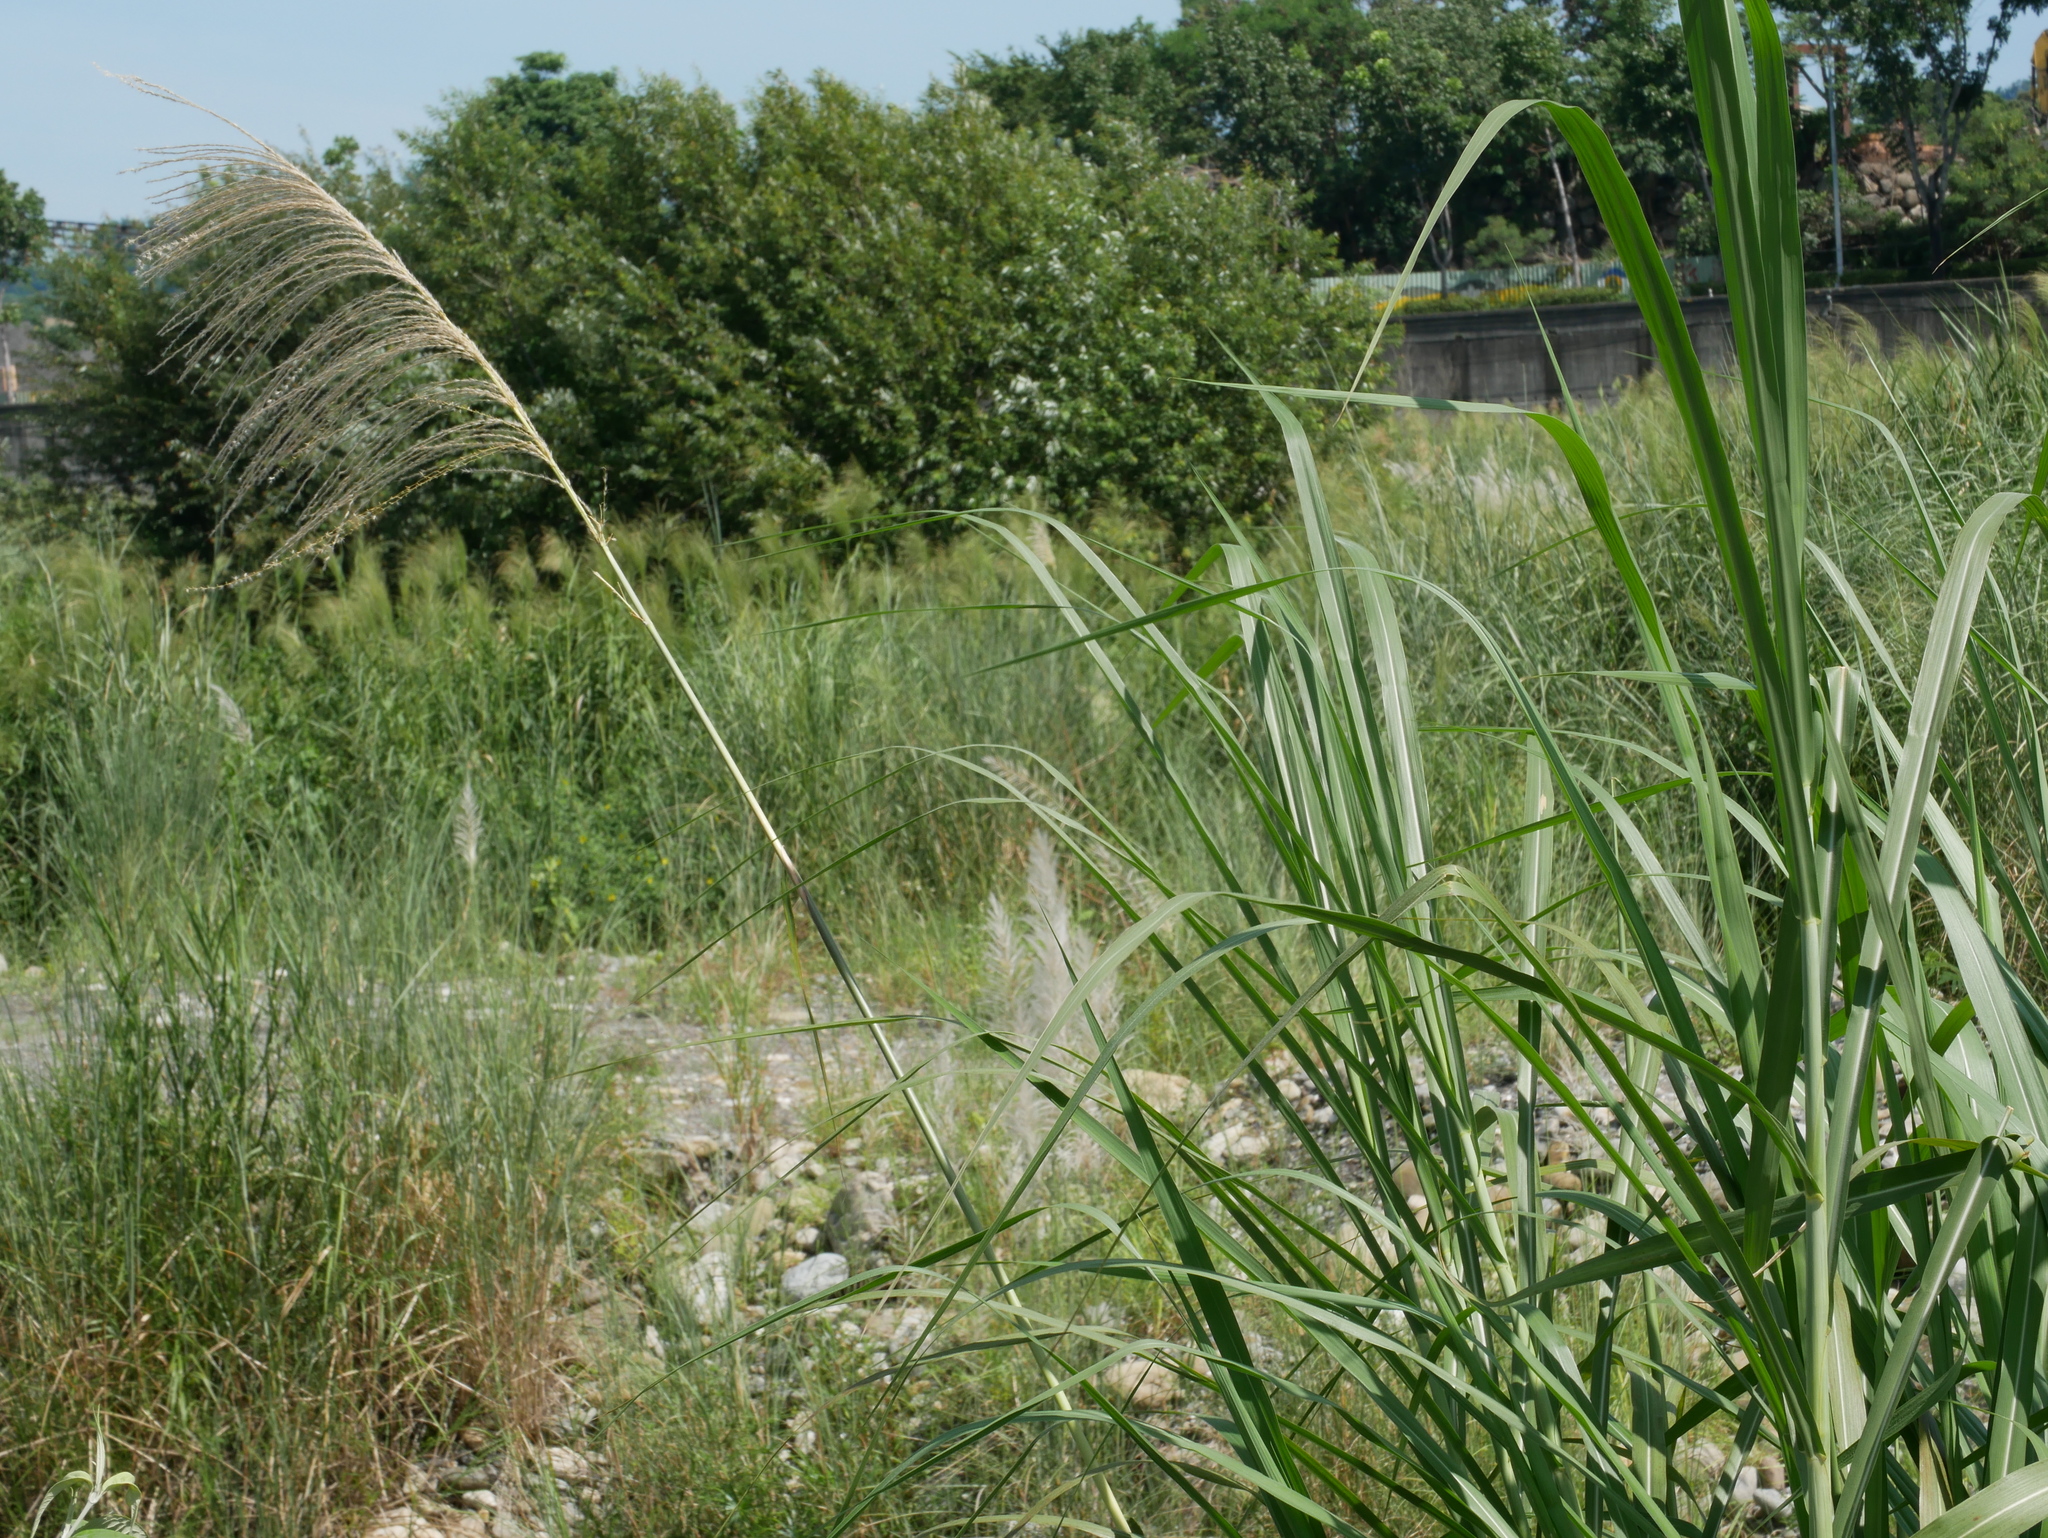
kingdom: Plantae
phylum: Tracheophyta
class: Liliopsida
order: Poales
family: Poaceae
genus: Miscanthus
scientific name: Miscanthus sinensis
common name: Chinese silvergrass
